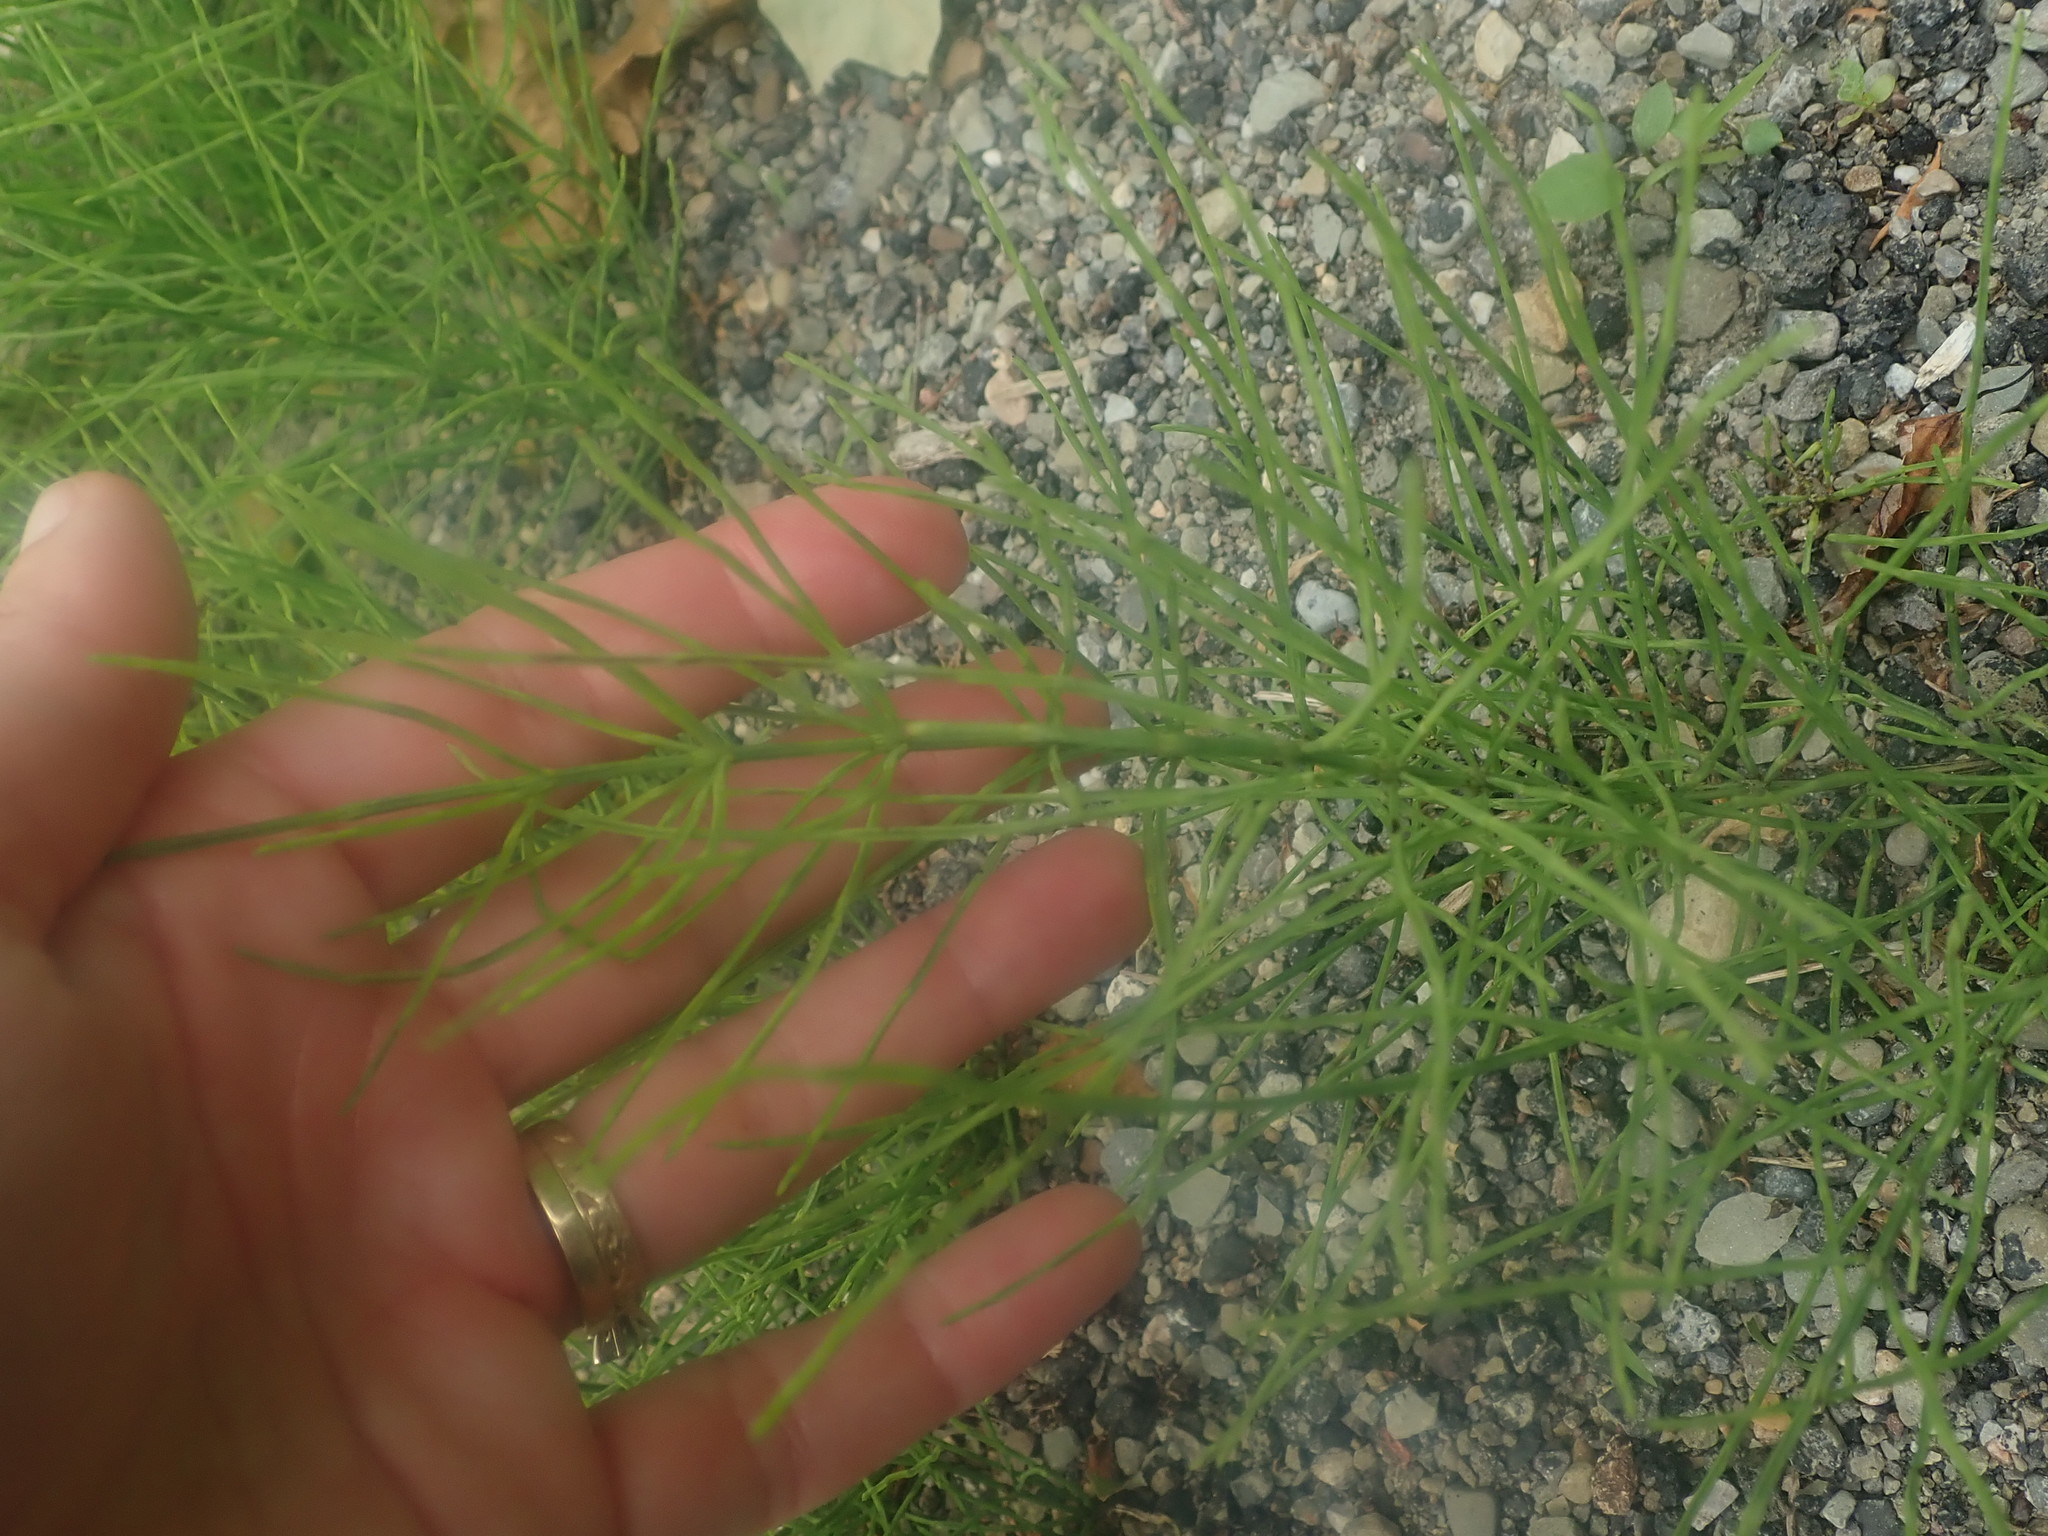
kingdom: Plantae
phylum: Tracheophyta
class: Polypodiopsida
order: Equisetales
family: Equisetaceae
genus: Equisetum
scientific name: Equisetum arvense
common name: Field horsetail
